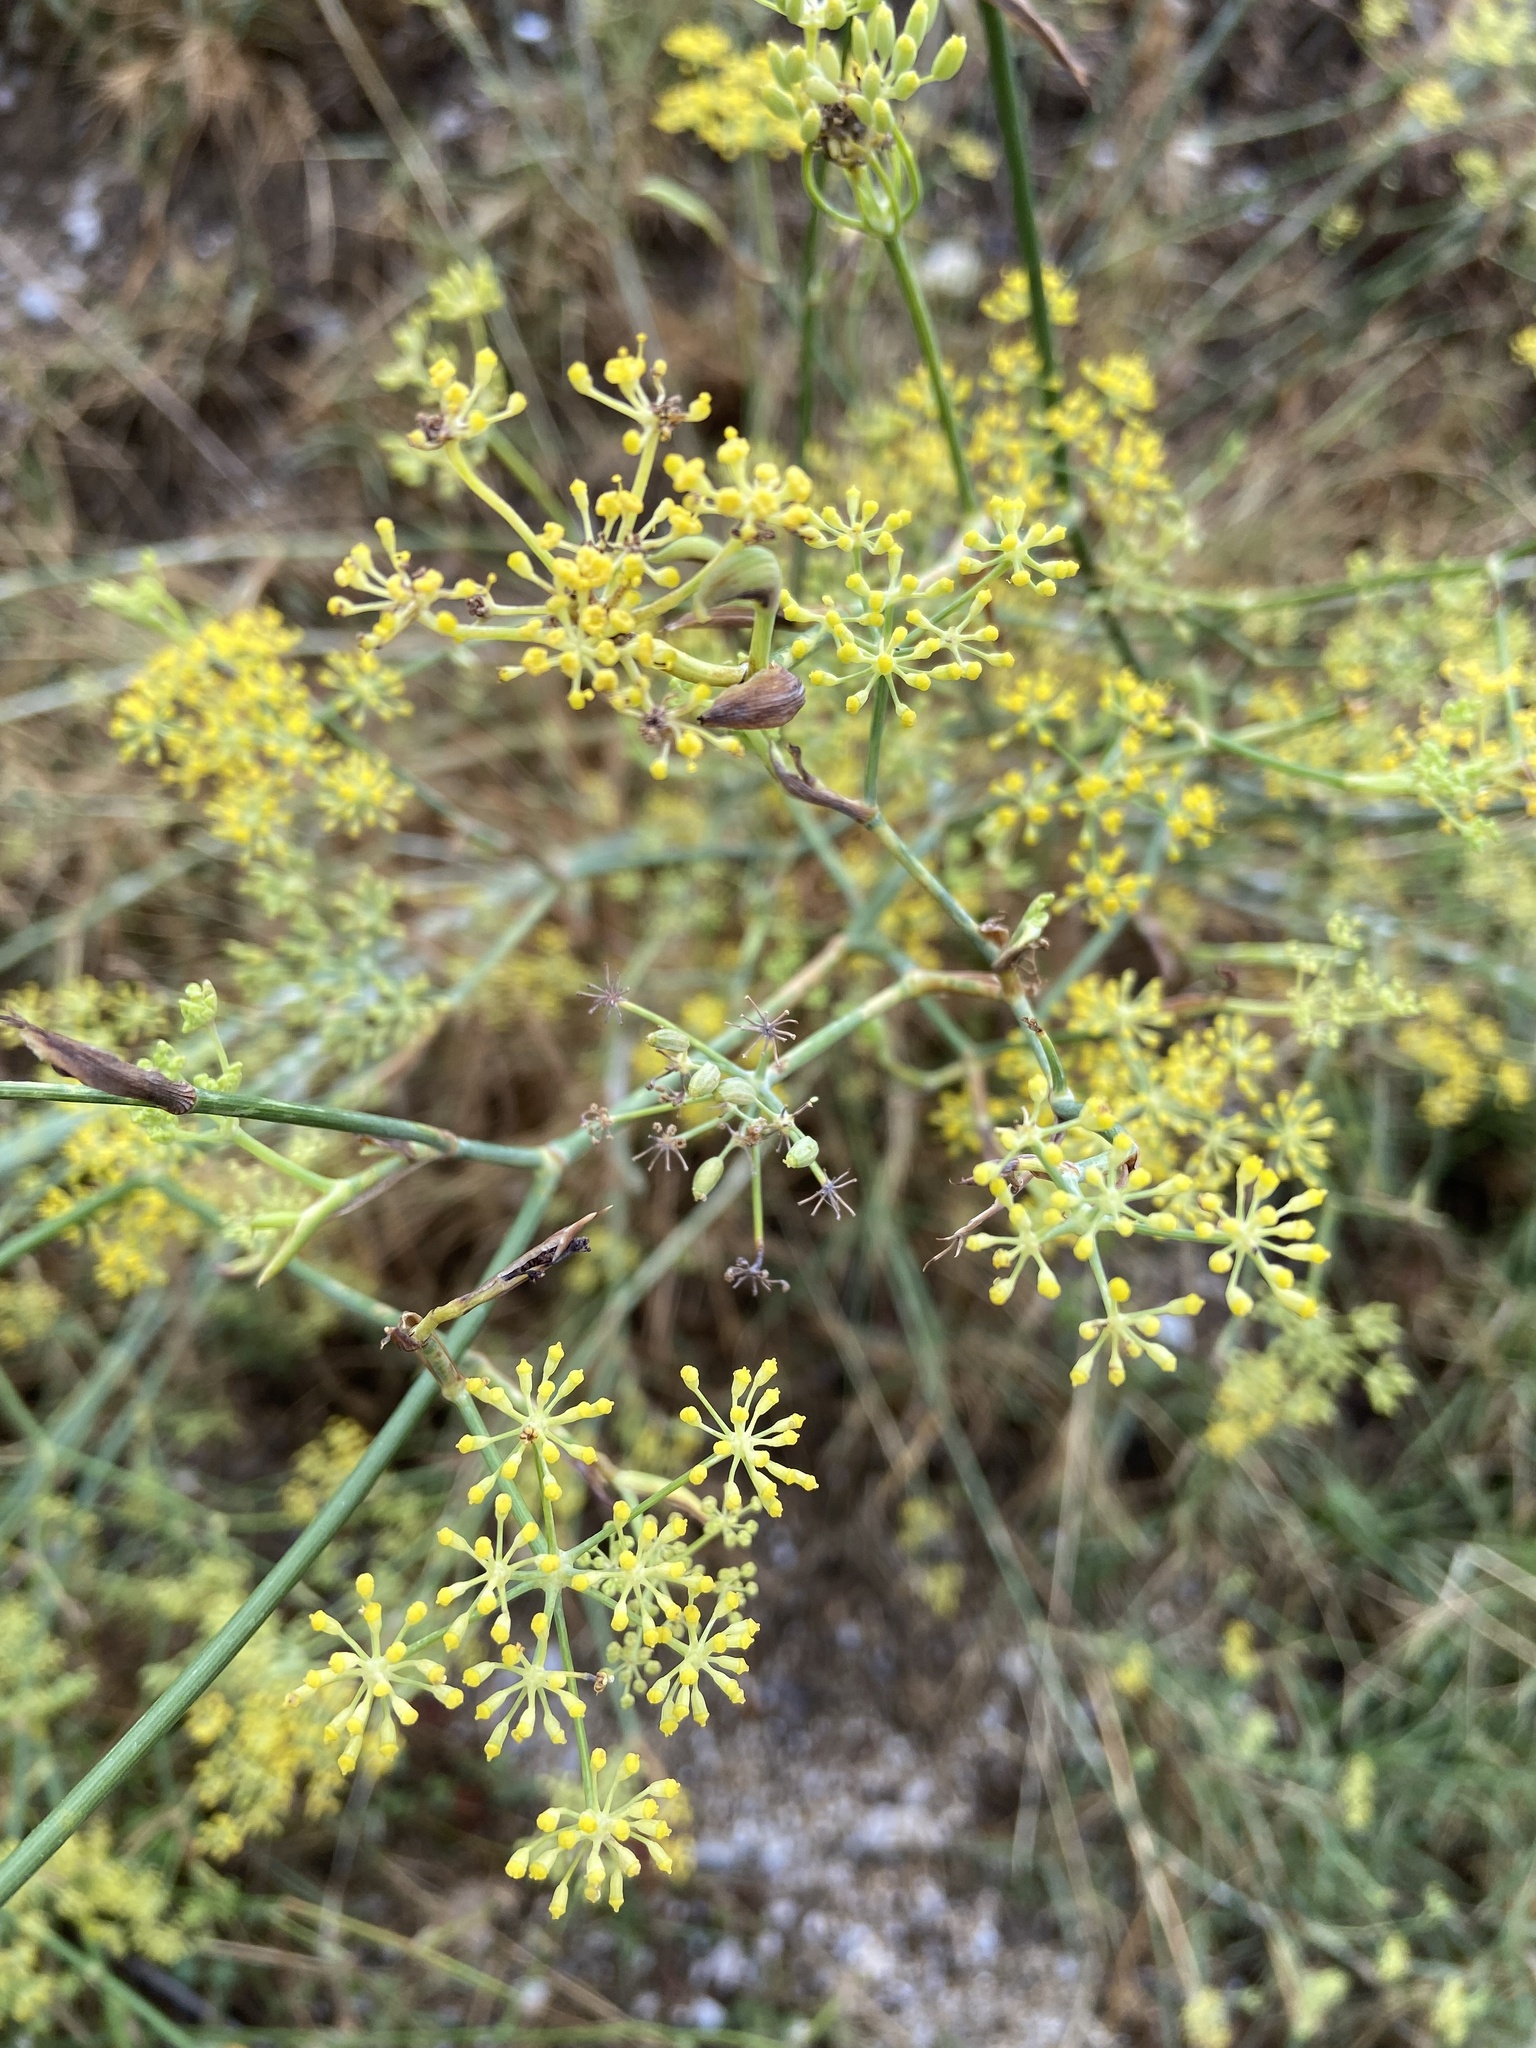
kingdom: Plantae
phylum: Tracheophyta
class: Magnoliopsida
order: Apiales
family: Apiaceae
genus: Foeniculum
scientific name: Foeniculum vulgare
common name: Fennel
